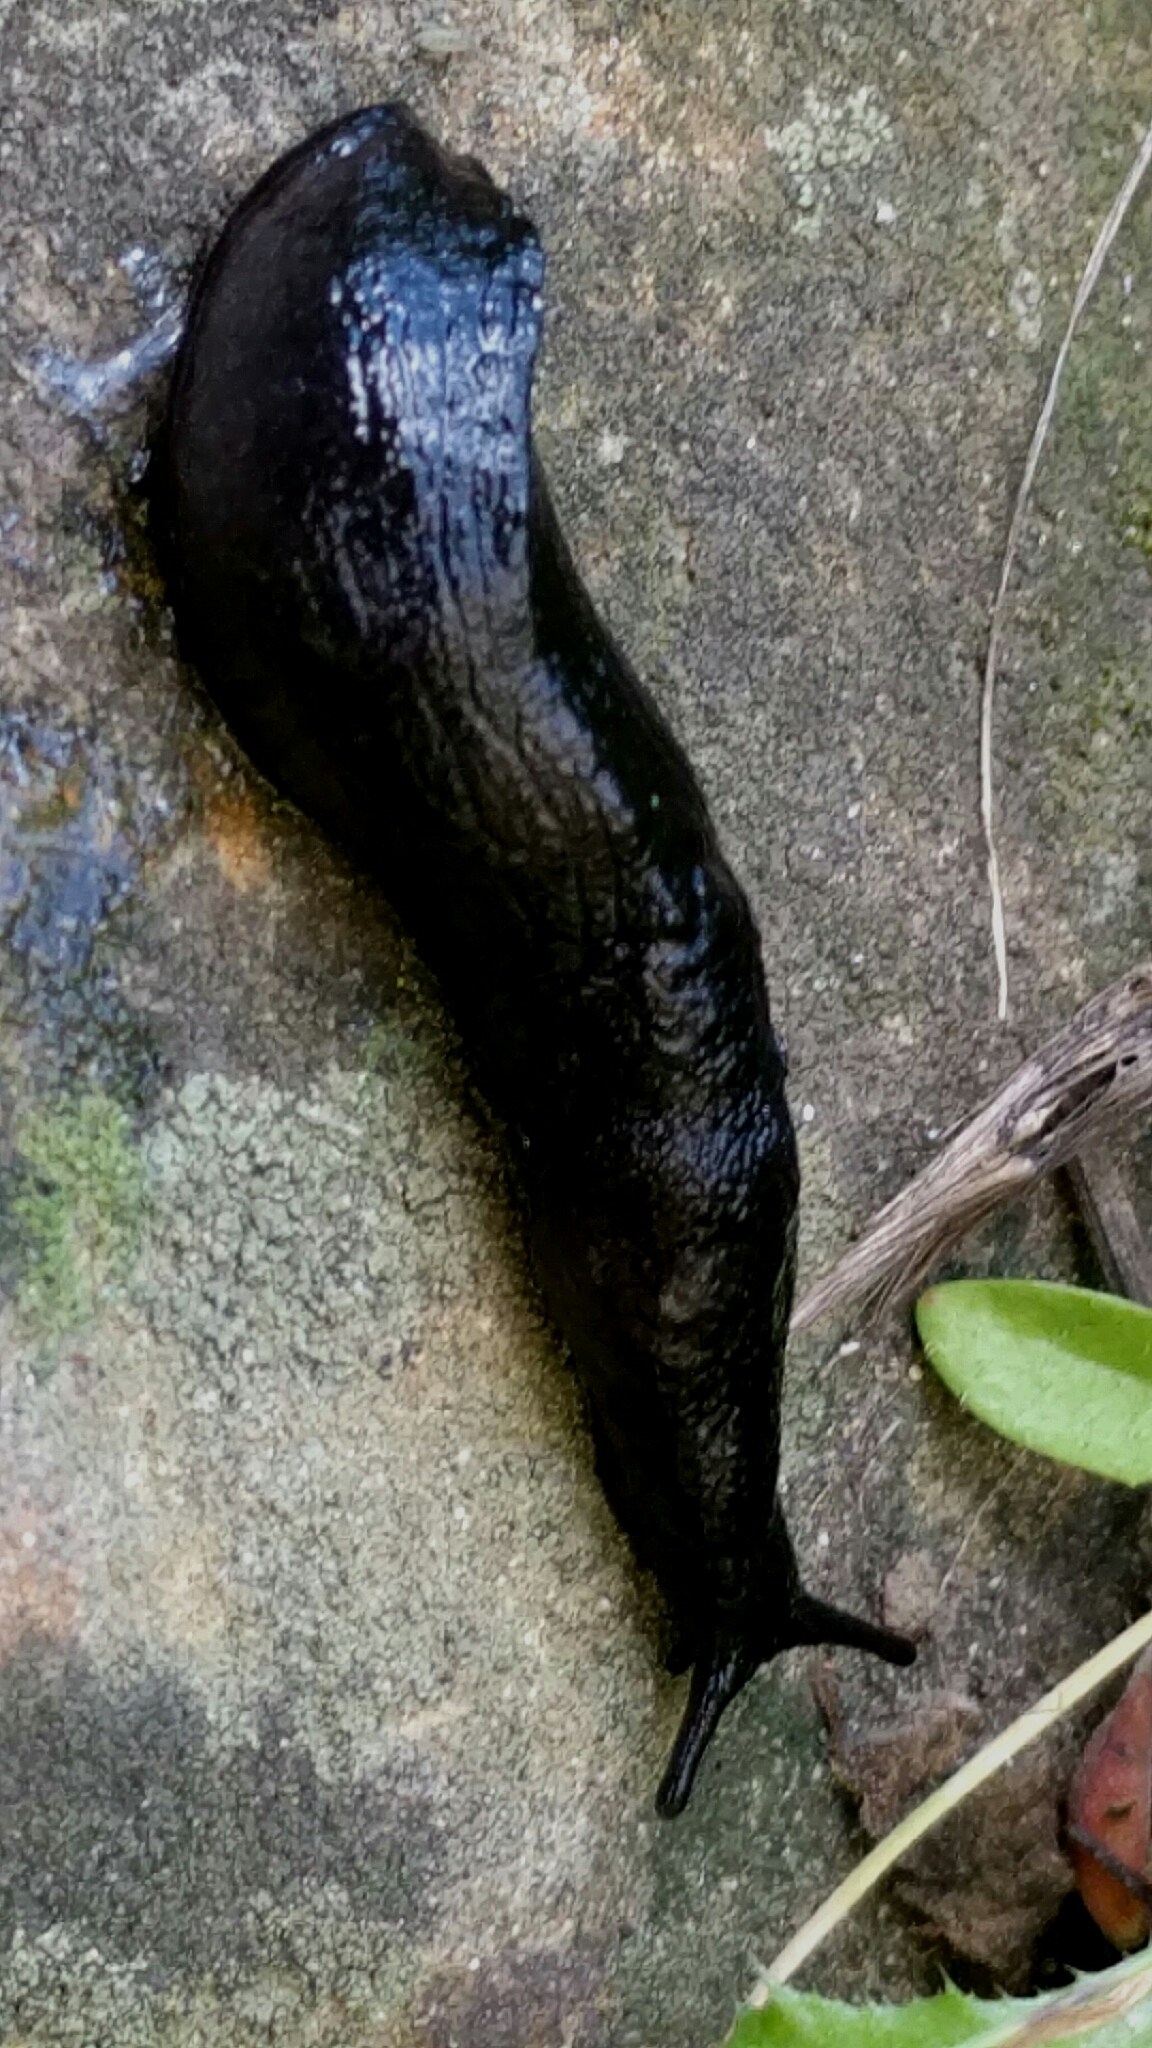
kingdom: Animalia
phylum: Mollusca
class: Gastropoda
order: Stylommatophora
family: Milacidae
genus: Milax
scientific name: Milax gagates
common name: Greenhouse slug
